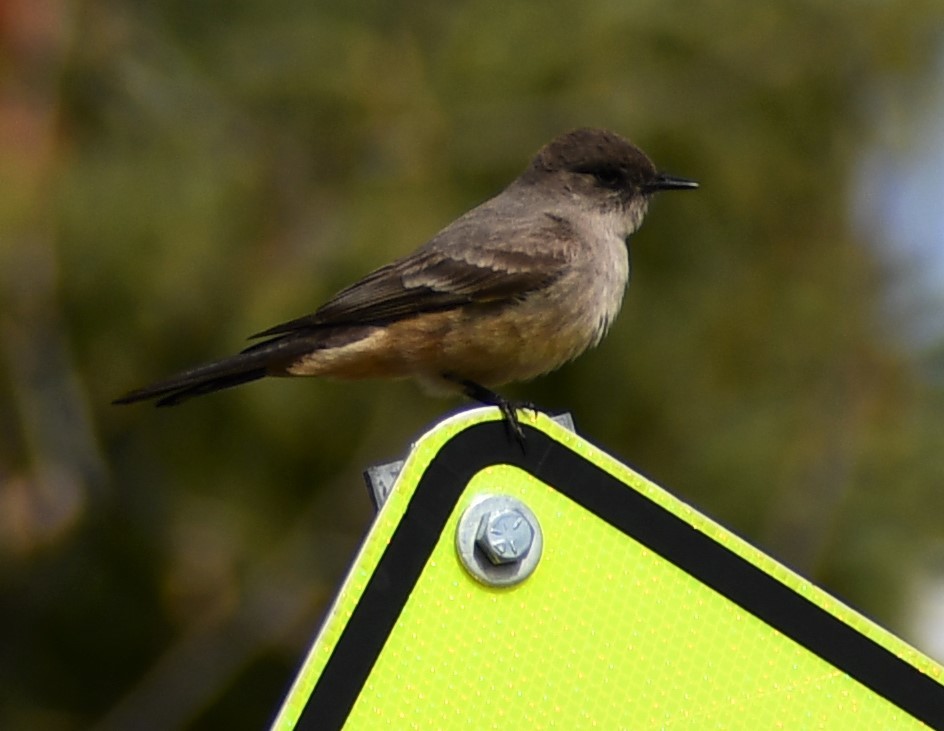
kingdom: Animalia
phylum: Chordata
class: Aves
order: Passeriformes
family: Tyrannidae
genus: Sayornis
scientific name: Sayornis saya
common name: Say's phoebe
